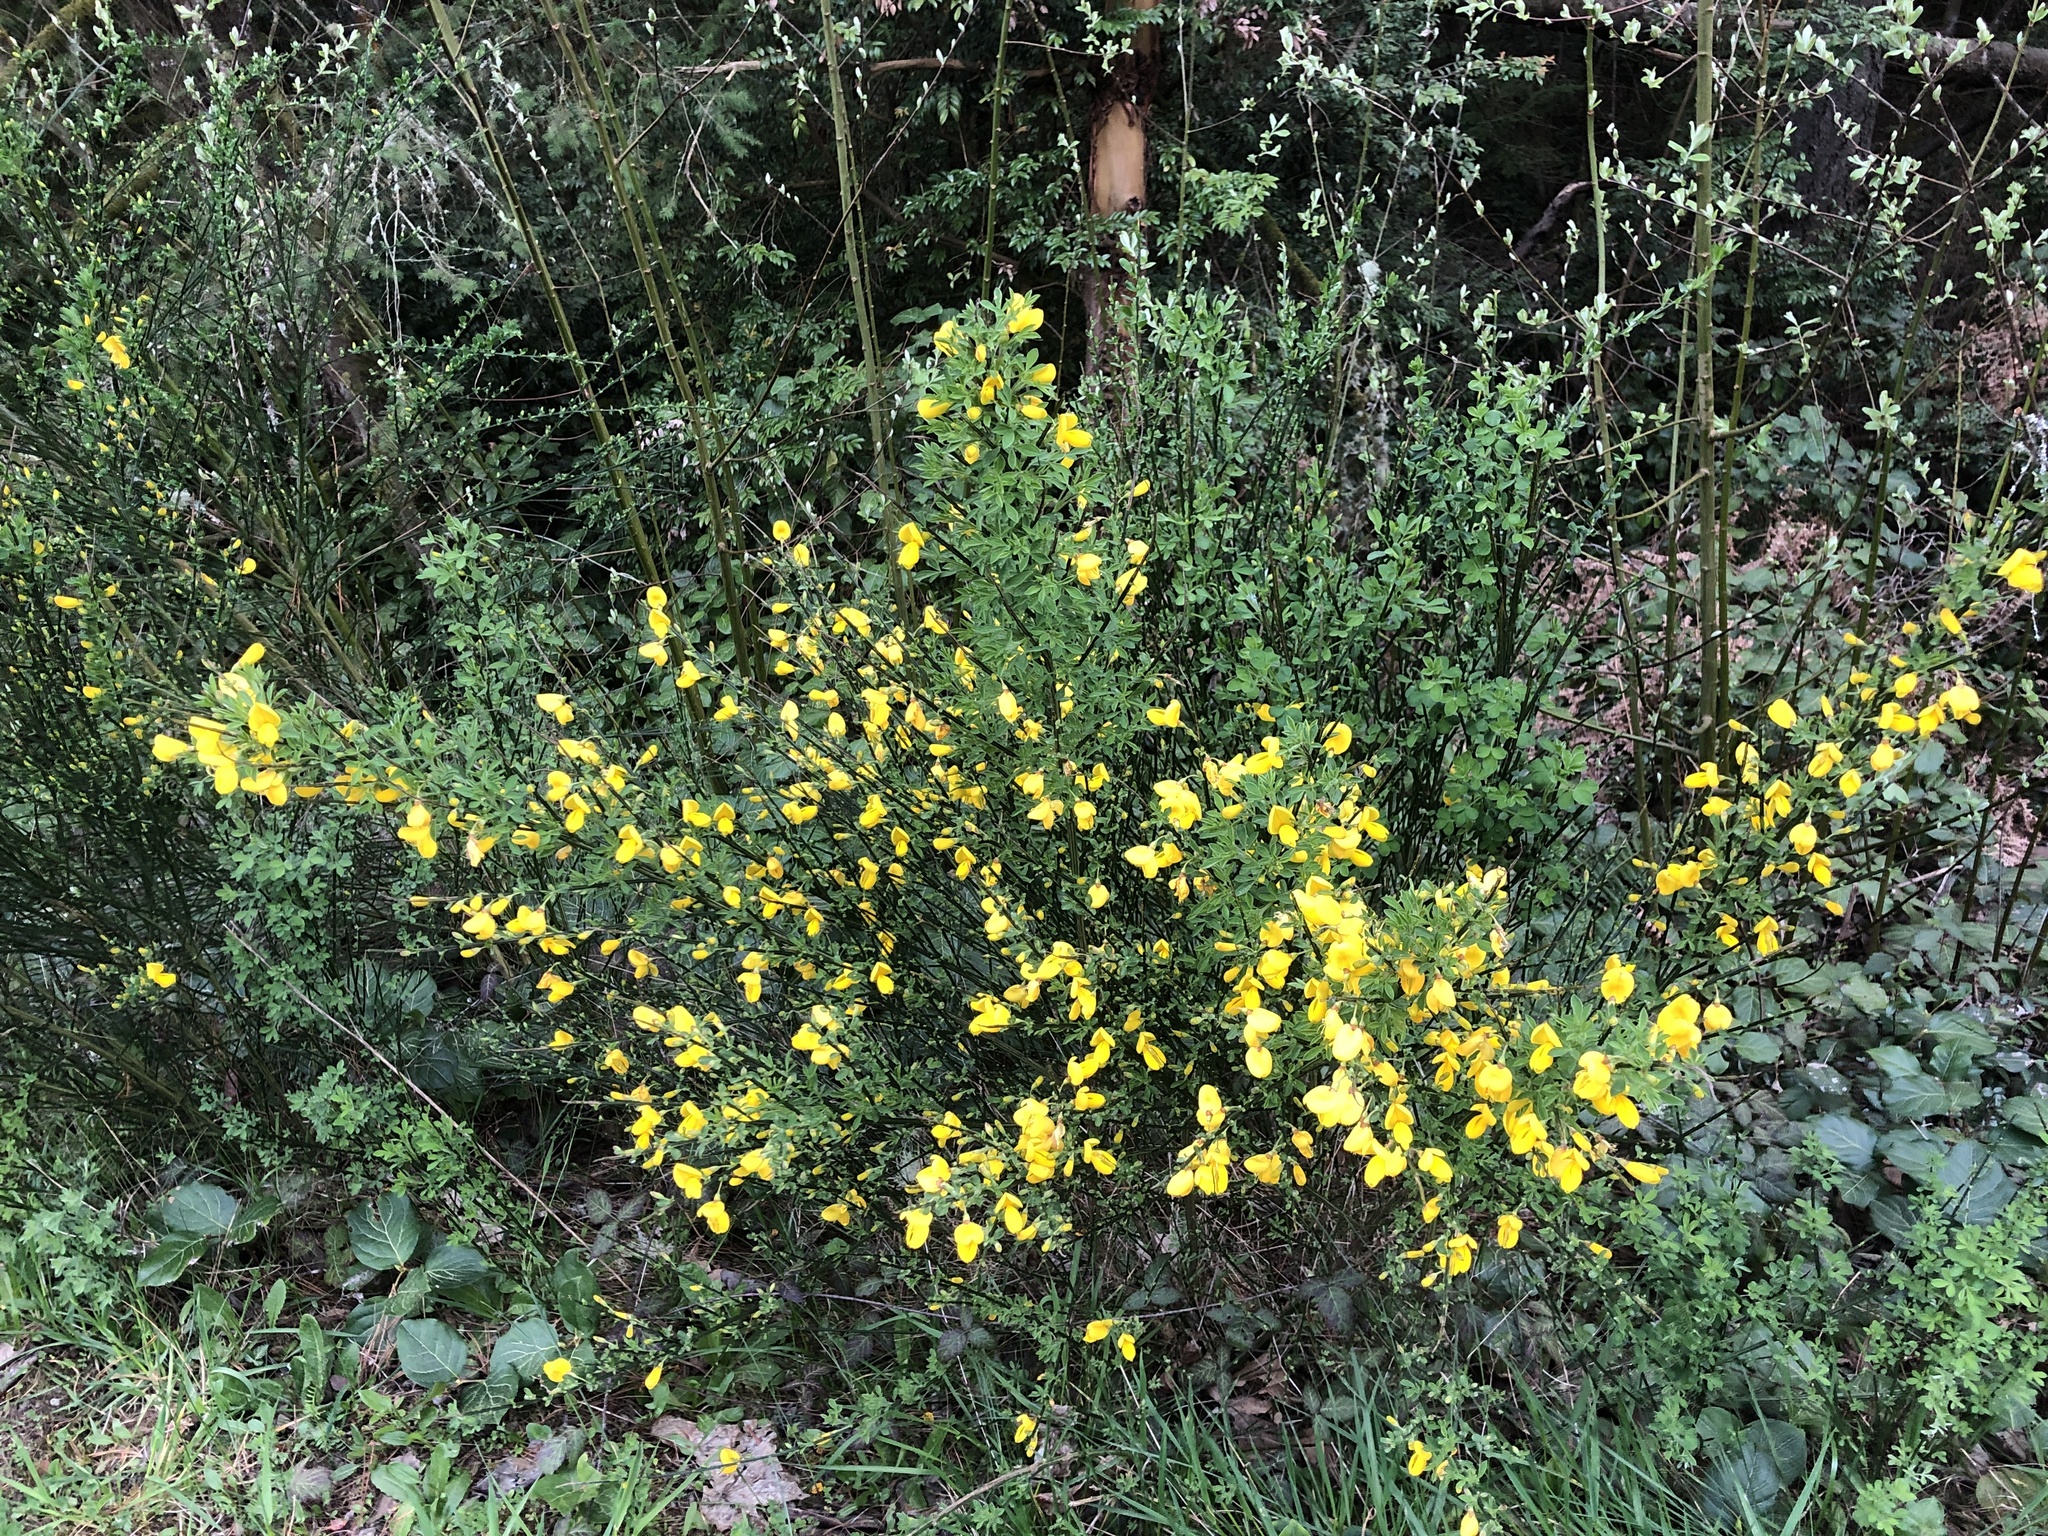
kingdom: Plantae
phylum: Tracheophyta
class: Magnoliopsida
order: Fabales
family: Fabaceae
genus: Cytisus
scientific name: Cytisus scoparius
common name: Scotch broom
